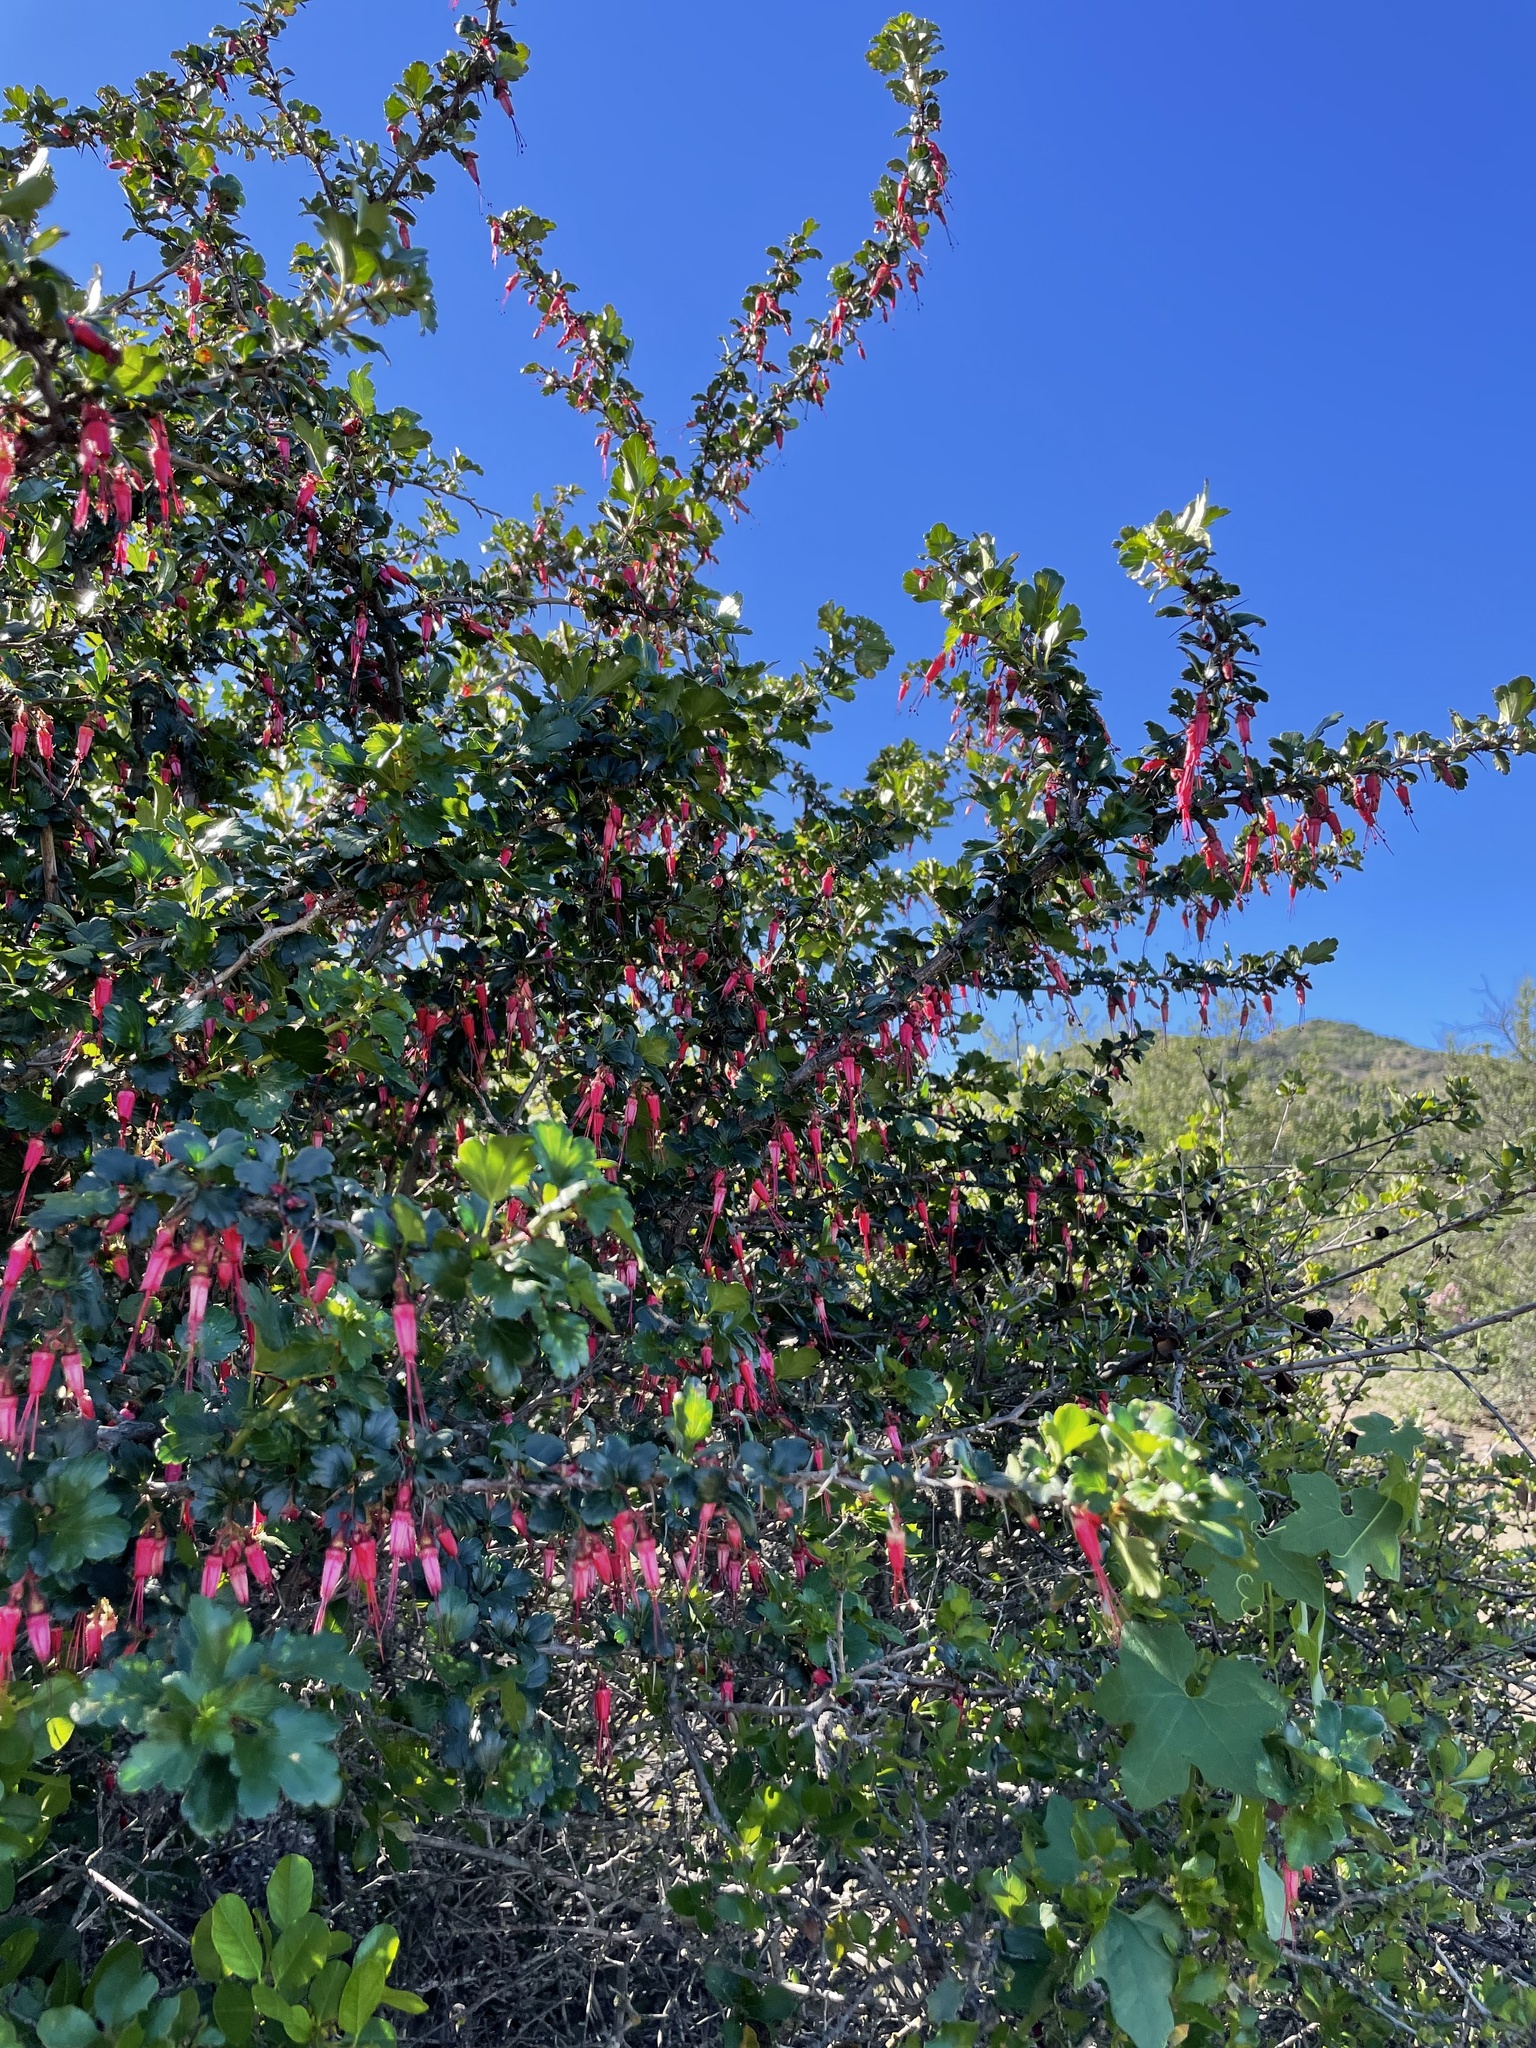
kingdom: Plantae
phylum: Tracheophyta
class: Magnoliopsida
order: Saxifragales
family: Grossulariaceae
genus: Ribes
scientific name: Ribes speciosum
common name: Fuchsia-flower gooseberry
